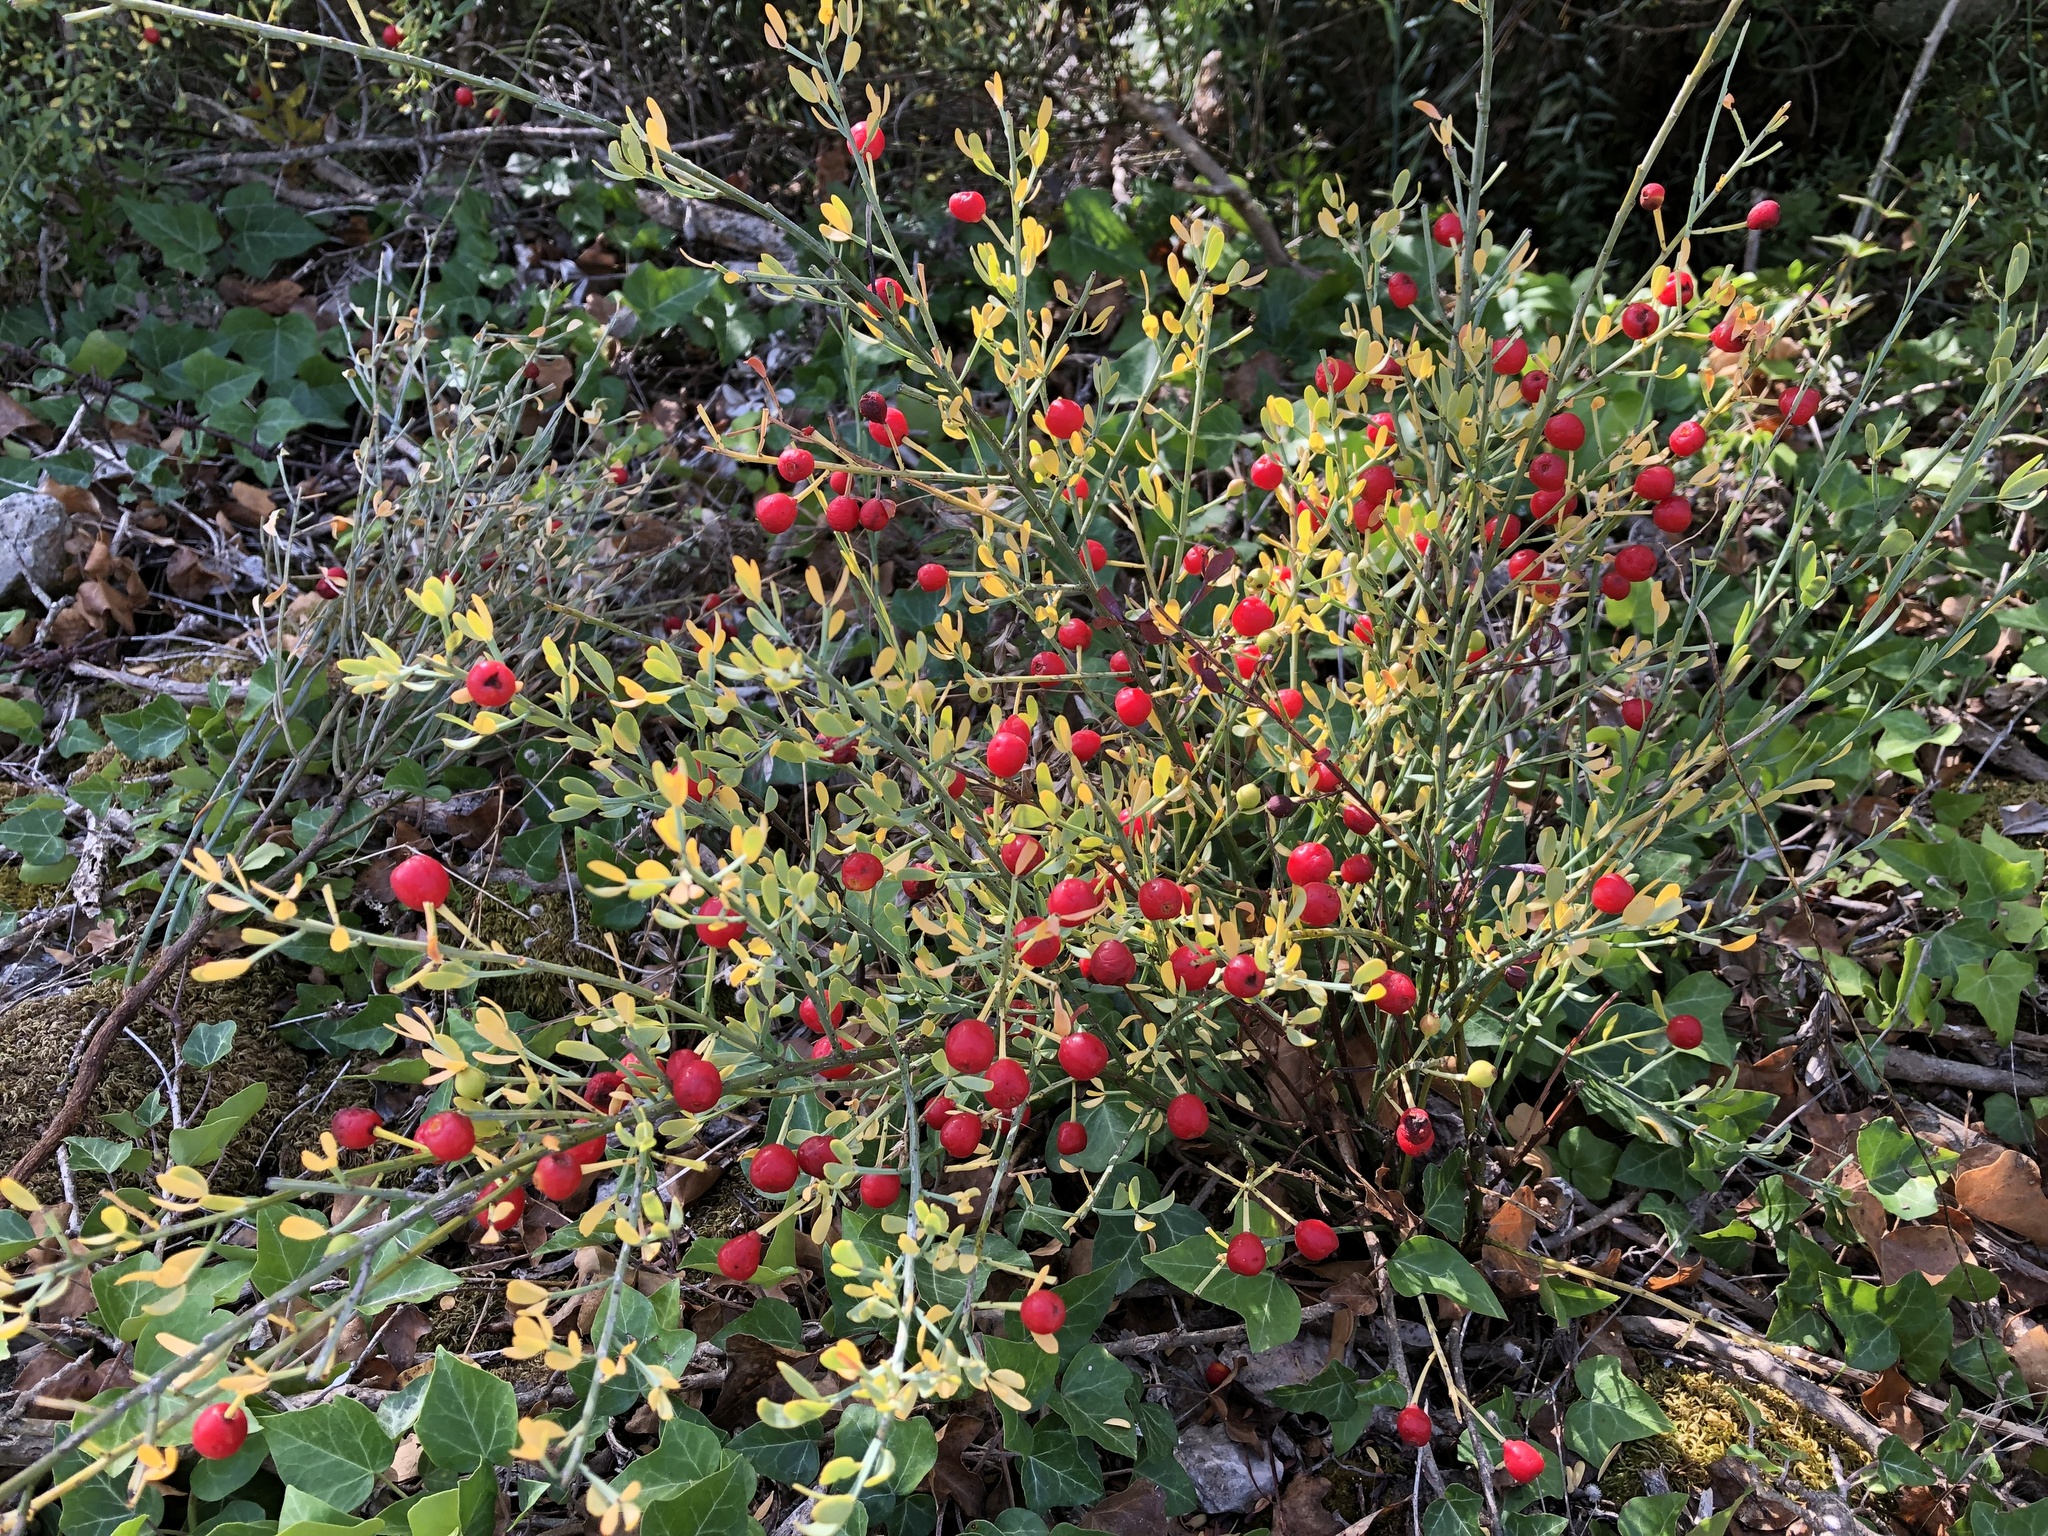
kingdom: Plantae
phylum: Tracheophyta
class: Magnoliopsida
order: Santalales
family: Santalaceae
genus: Osyris
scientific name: Osyris alba
